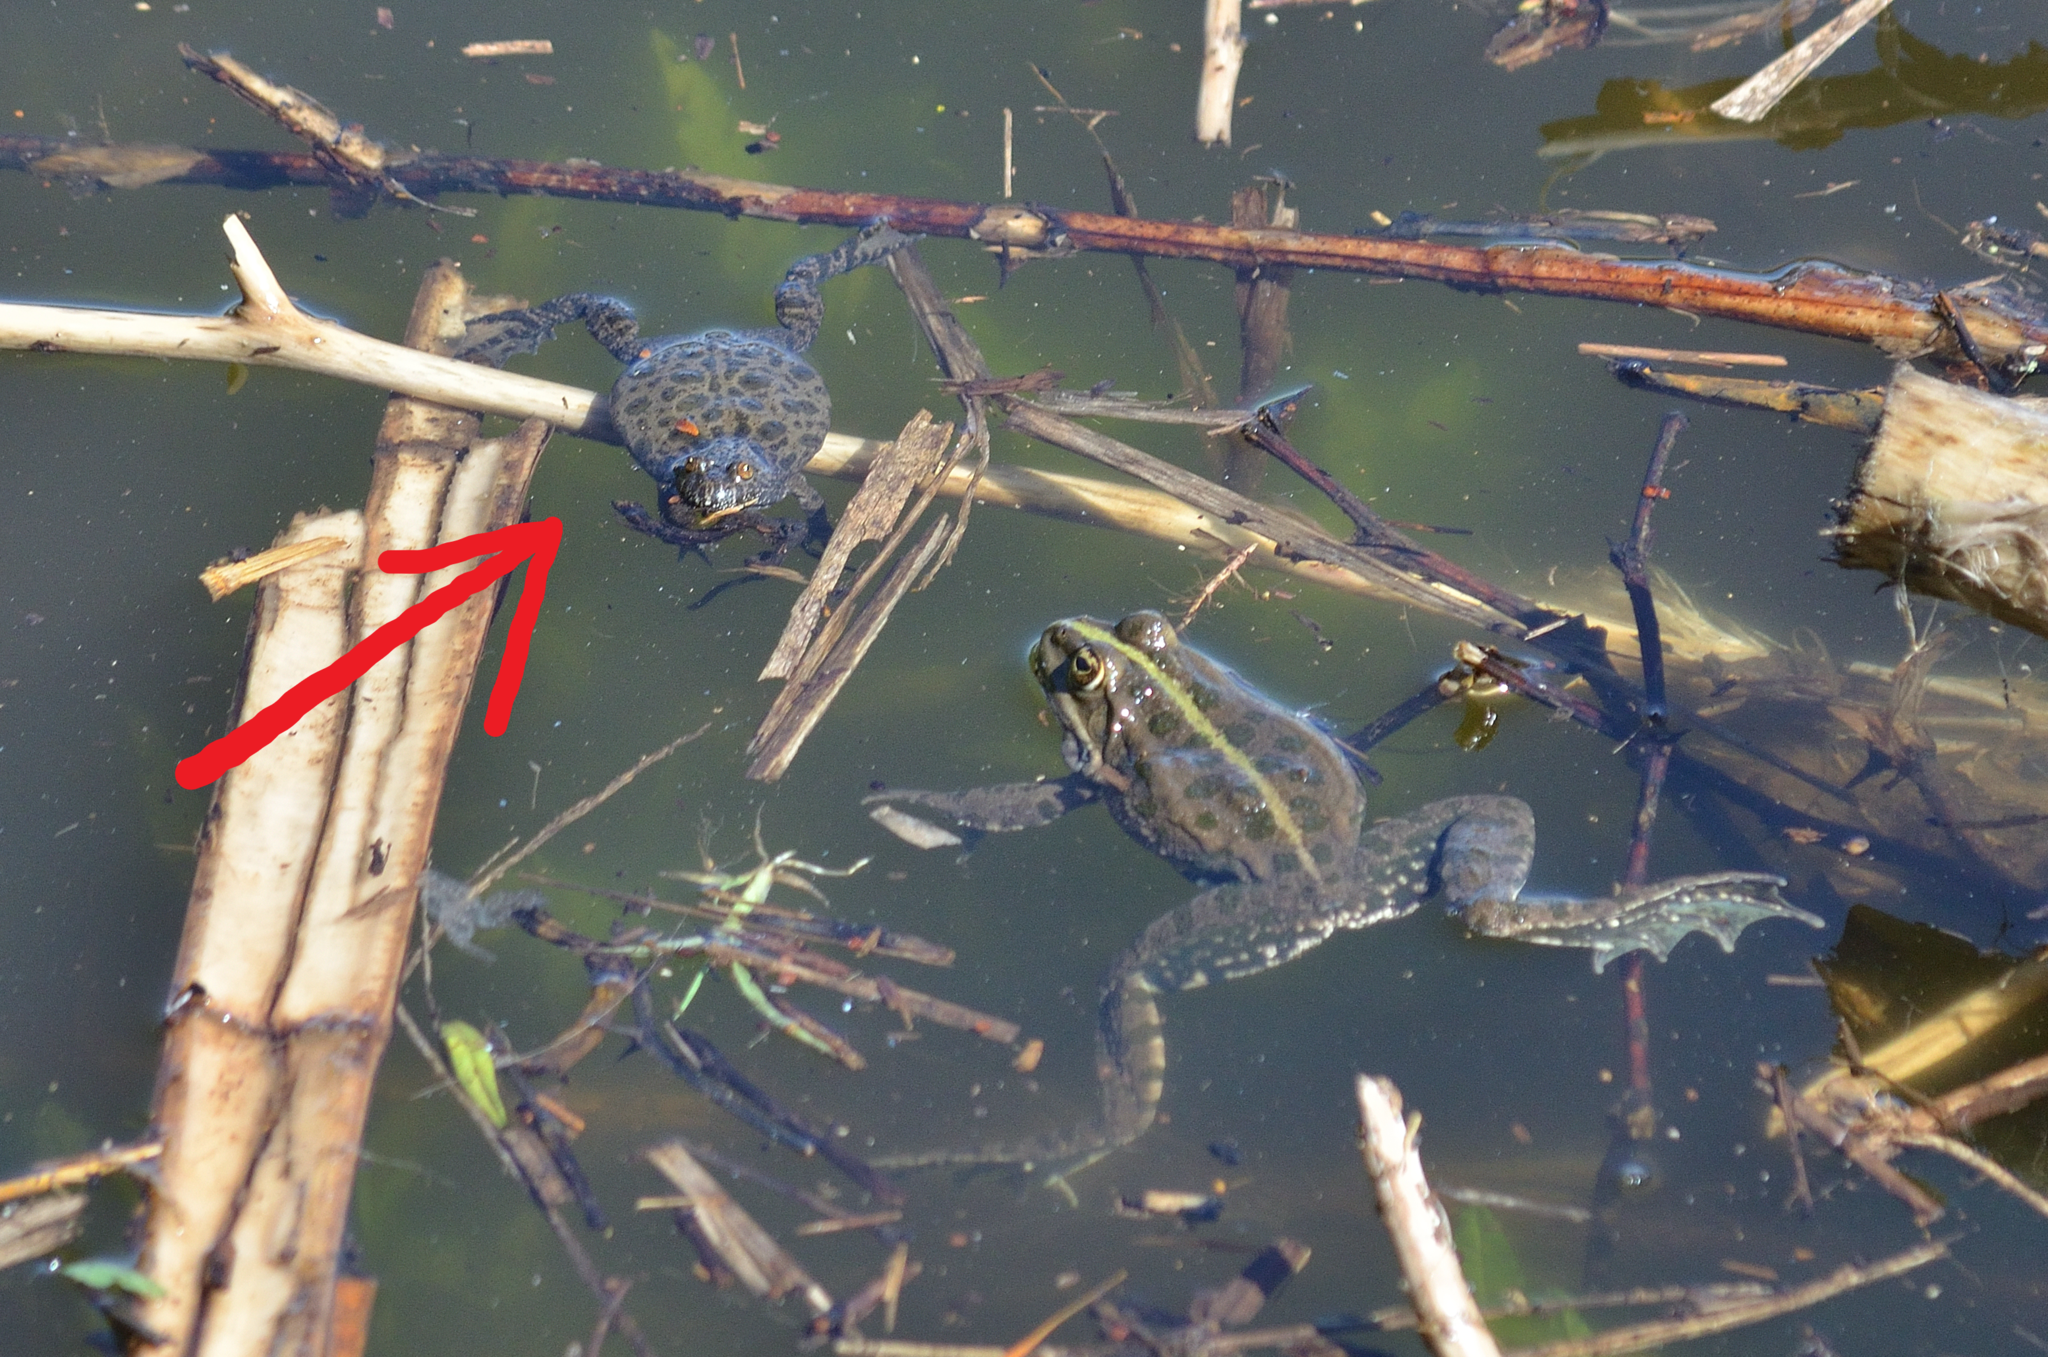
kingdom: Animalia
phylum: Chordata
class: Amphibia
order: Anura
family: Bombinatoridae
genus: Bombina
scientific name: Bombina bombina
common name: Fire-bellied toad
